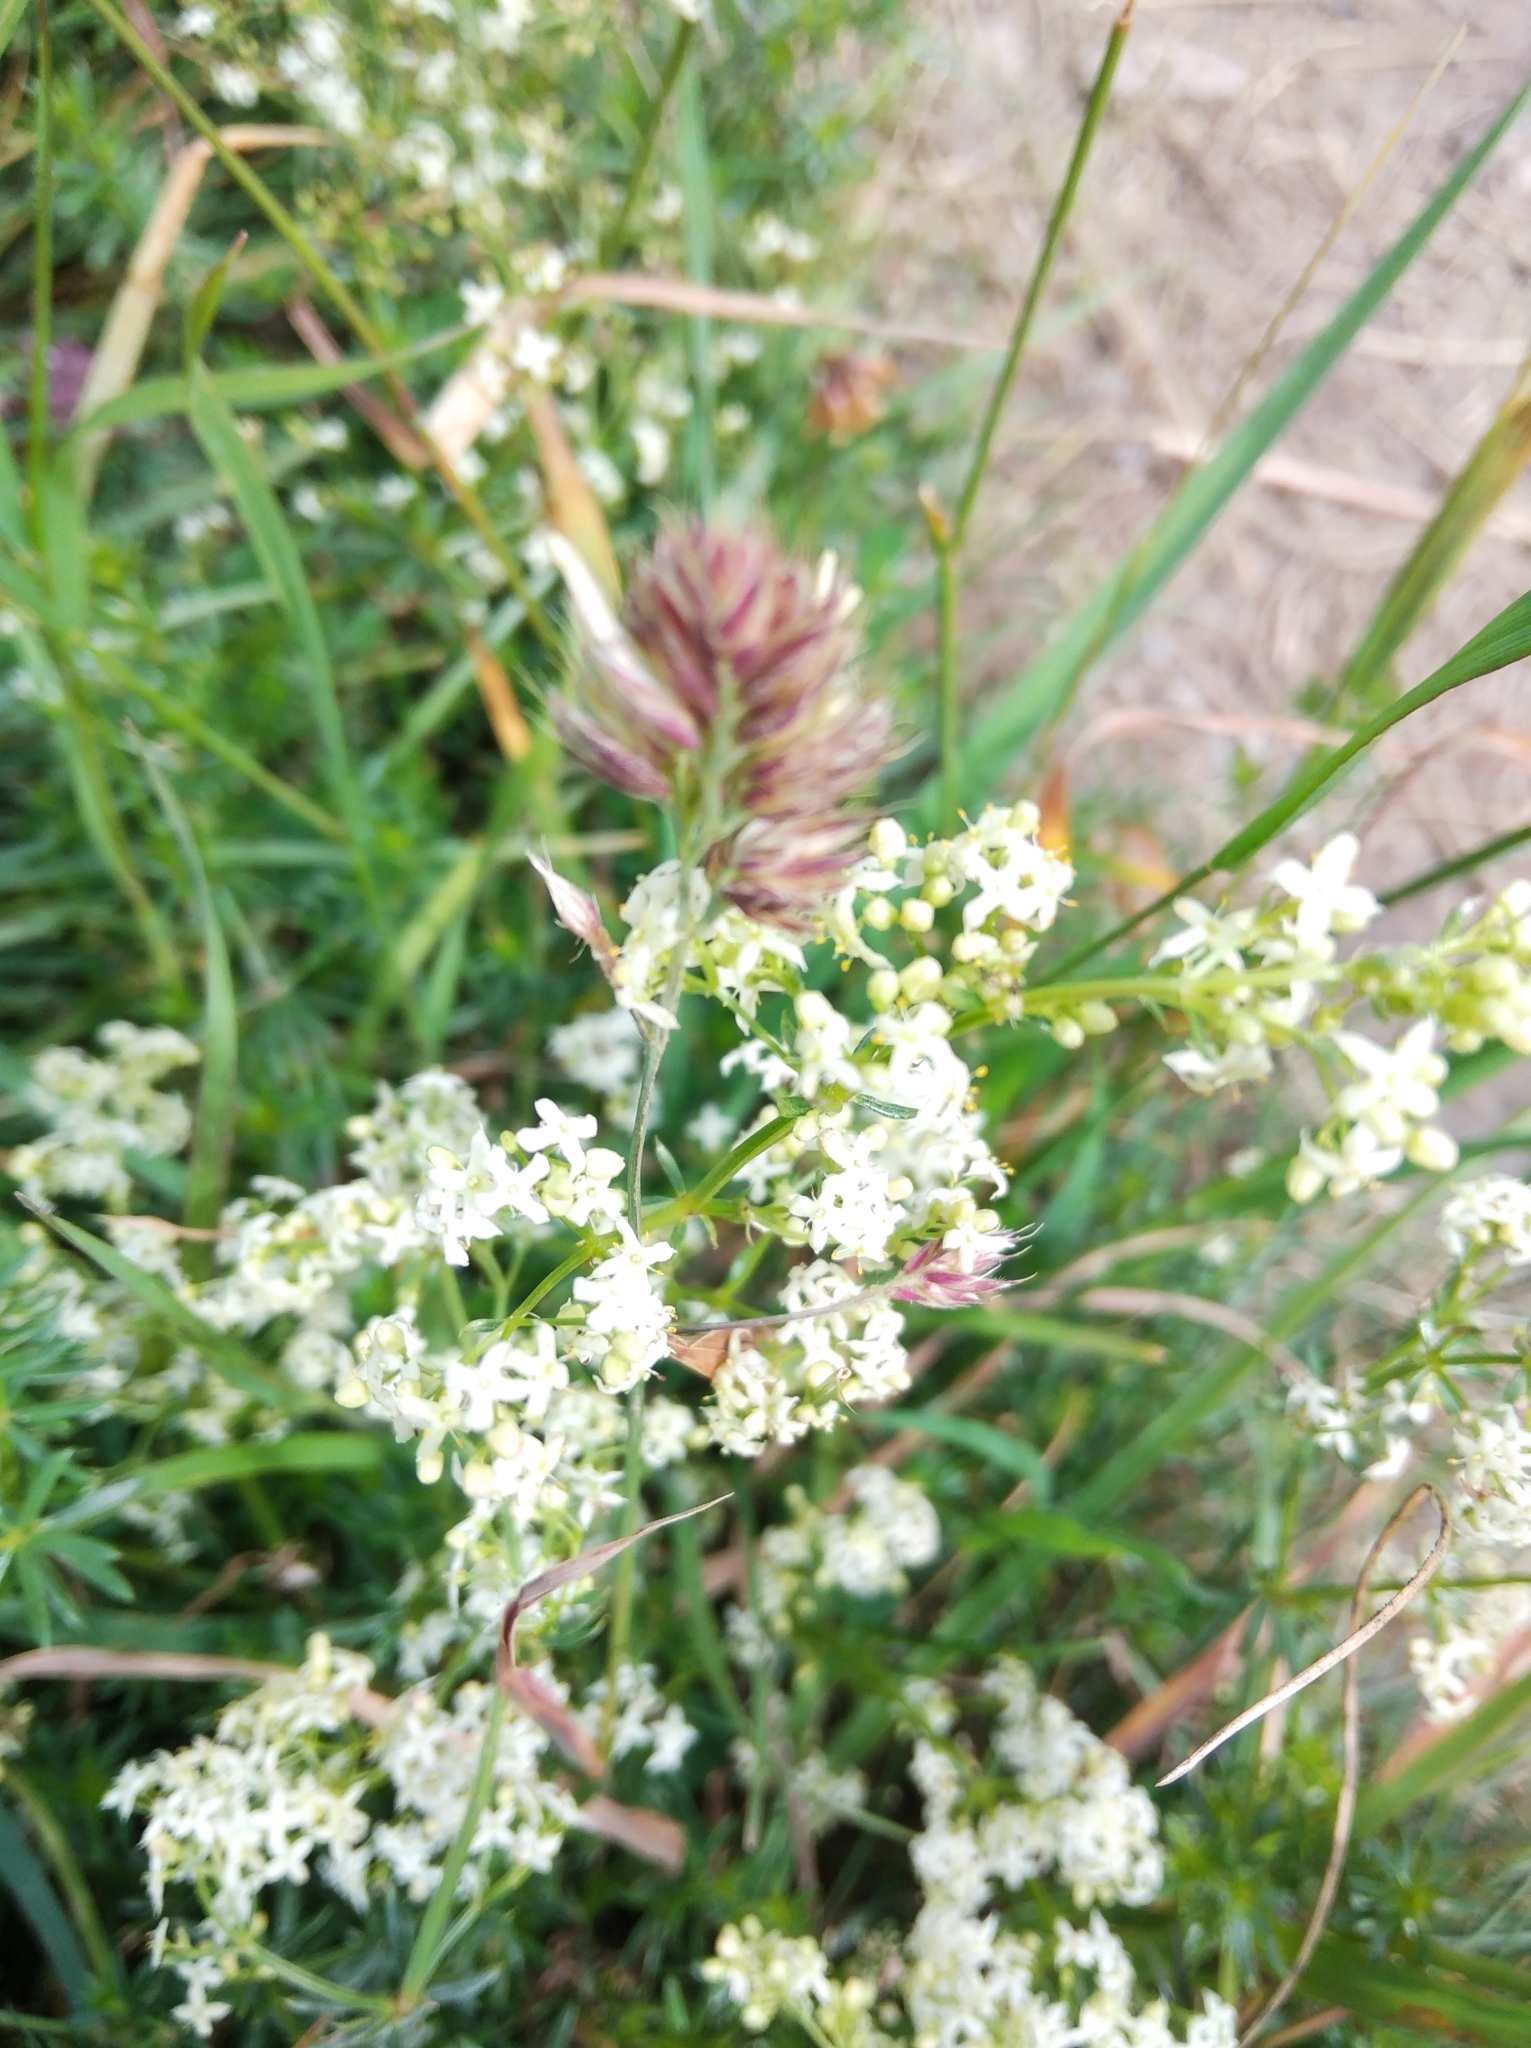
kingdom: Plantae
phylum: Tracheophyta
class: Magnoliopsida
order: Gentianales
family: Rubiaceae
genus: Galium
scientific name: Galium album
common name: White bedstraw
